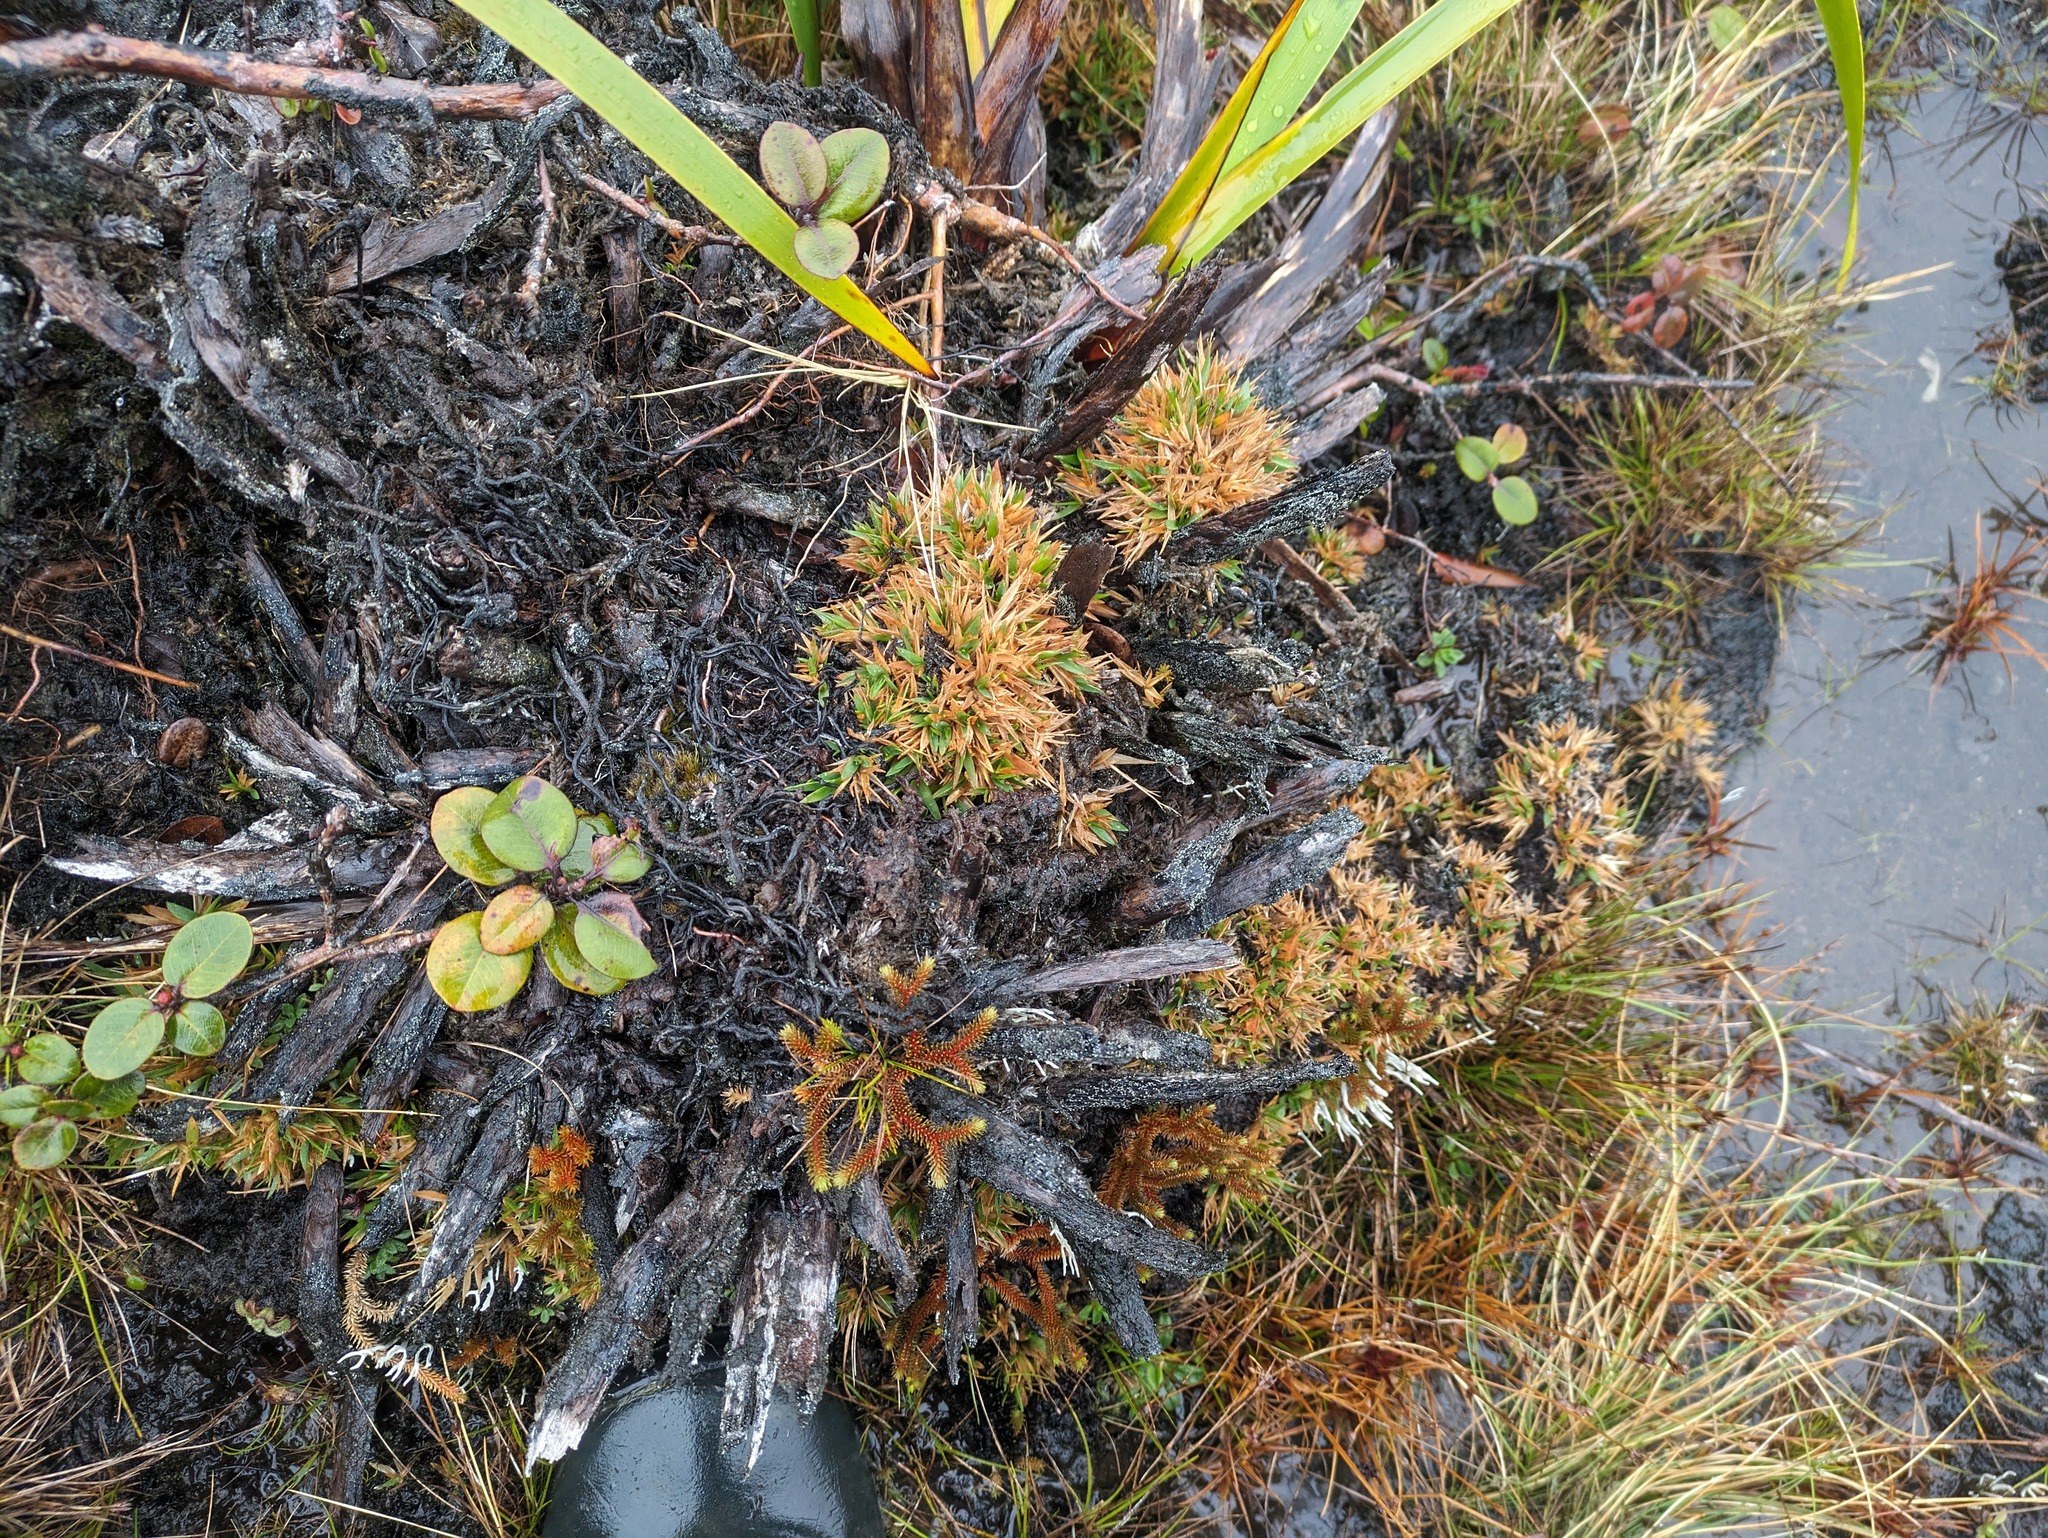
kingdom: Plantae
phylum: Tracheophyta
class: Liliopsida
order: Poales
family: Poaceae
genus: Dichanthelium
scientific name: Dichanthelium cynodon
